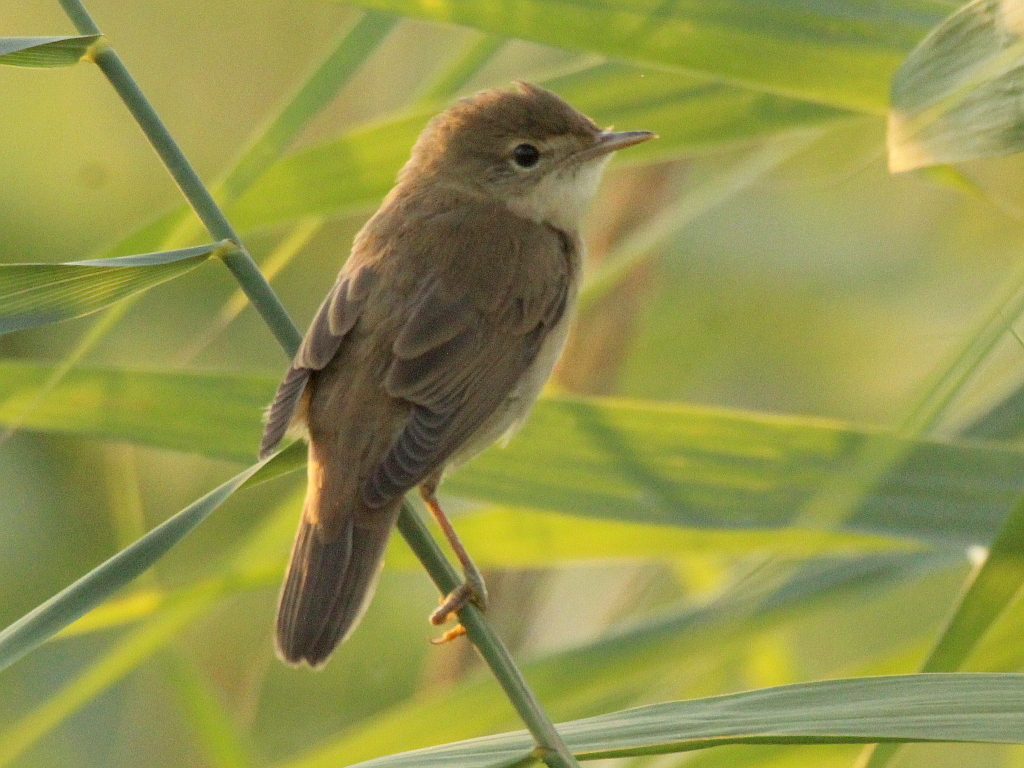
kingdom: Animalia
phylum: Chordata
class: Aves
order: Passeriformes
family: Acrocephalidae
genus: Acrocephalus
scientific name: Acrocephalus scirpaceus
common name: Eurasian reed warbler
